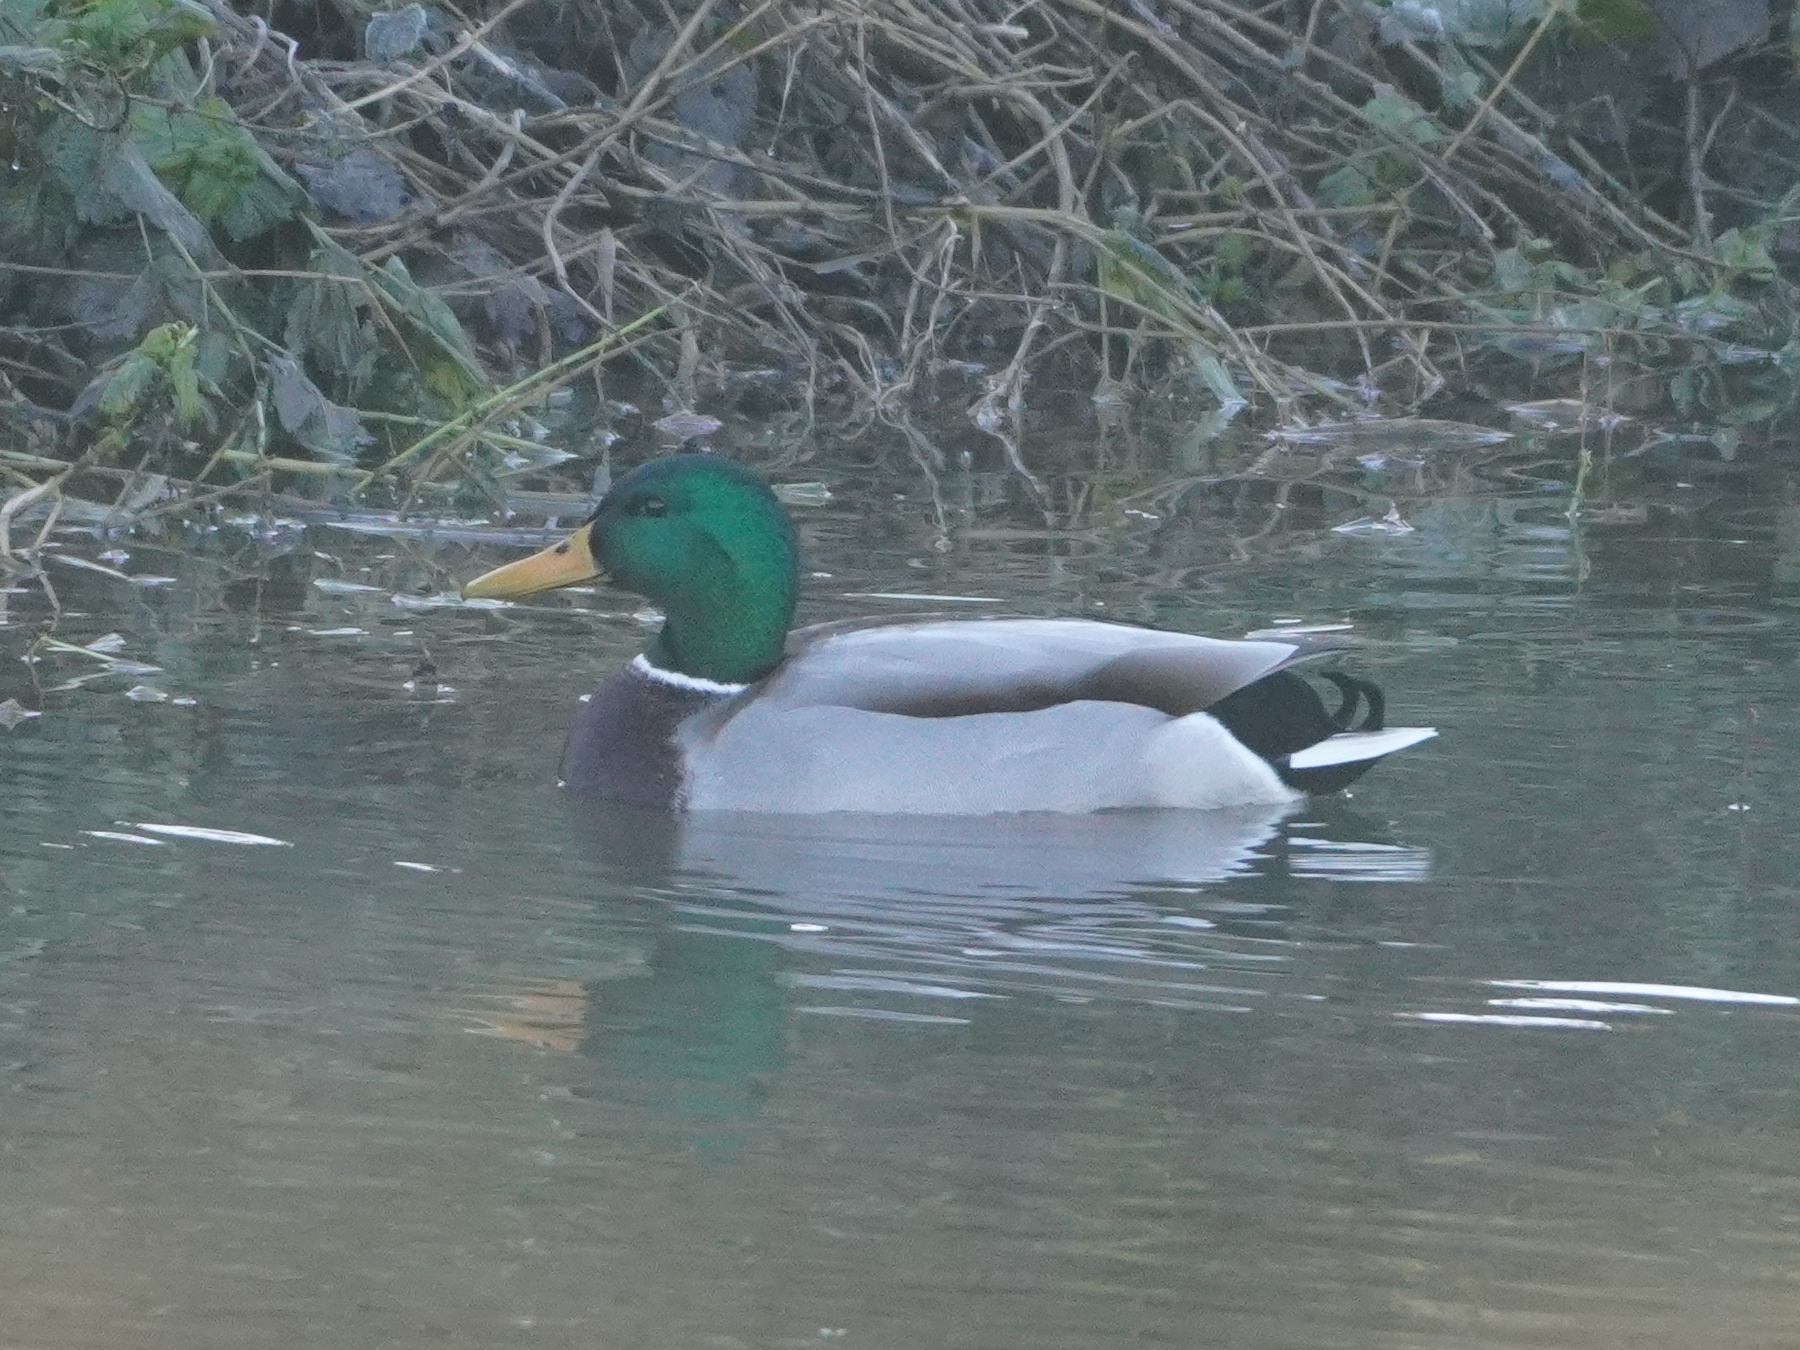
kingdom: Animalia
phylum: Chordata
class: Aves
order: Anseriformes
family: Anatidae
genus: Anas
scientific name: Anas platyrhynchos
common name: Mallard
